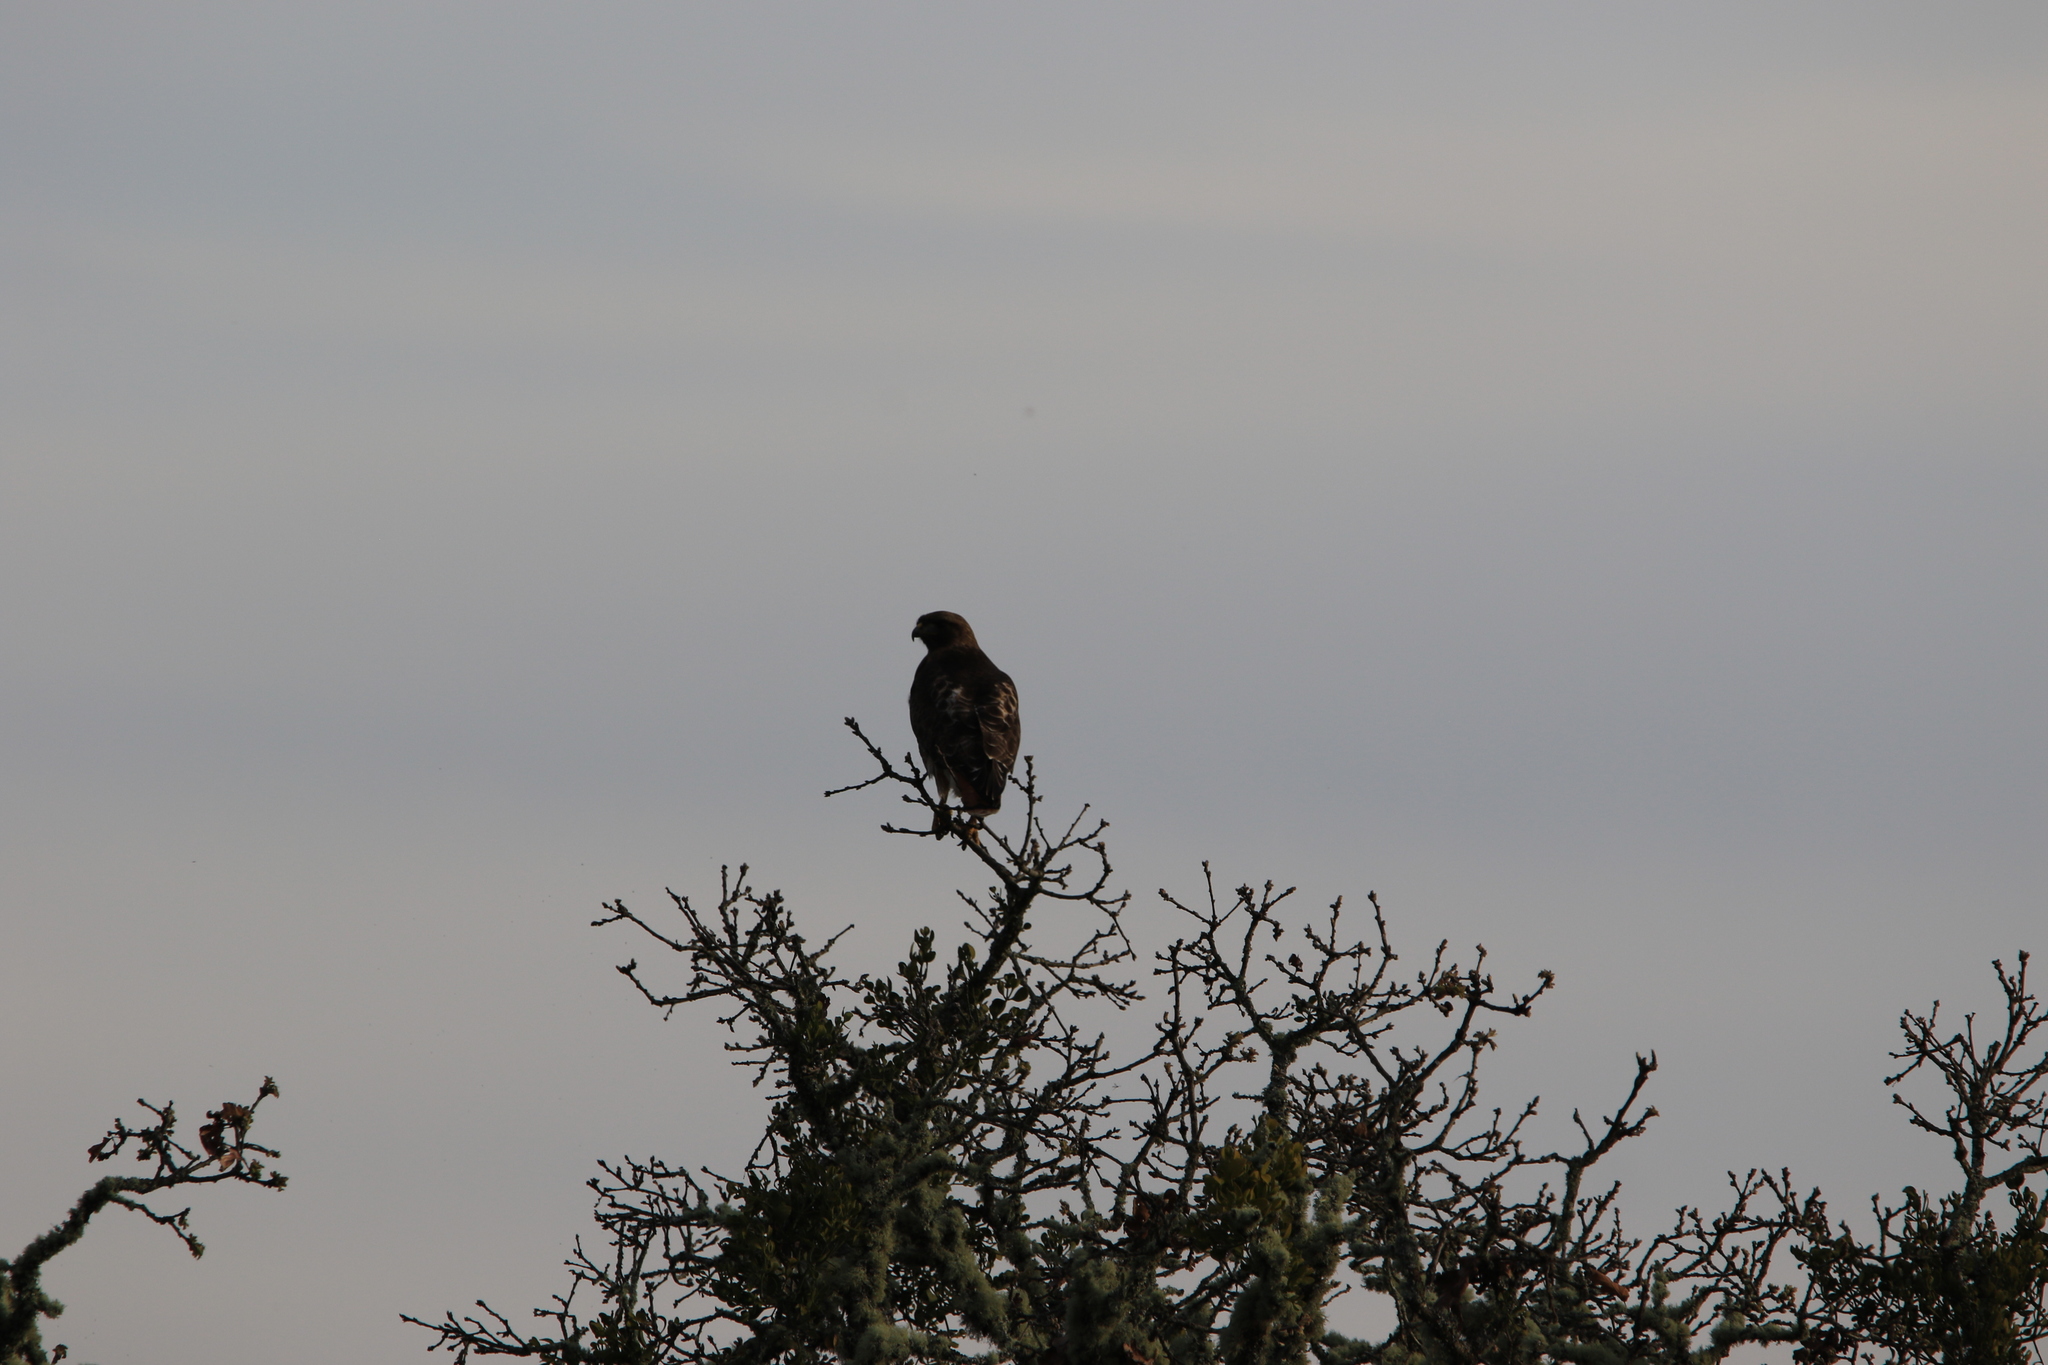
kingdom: Animalia
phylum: Chordata
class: Aves
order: Accipitriformes
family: Accipitridae
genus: Buteo
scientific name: Buteo jamaicensis
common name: Red-tailed hawk
